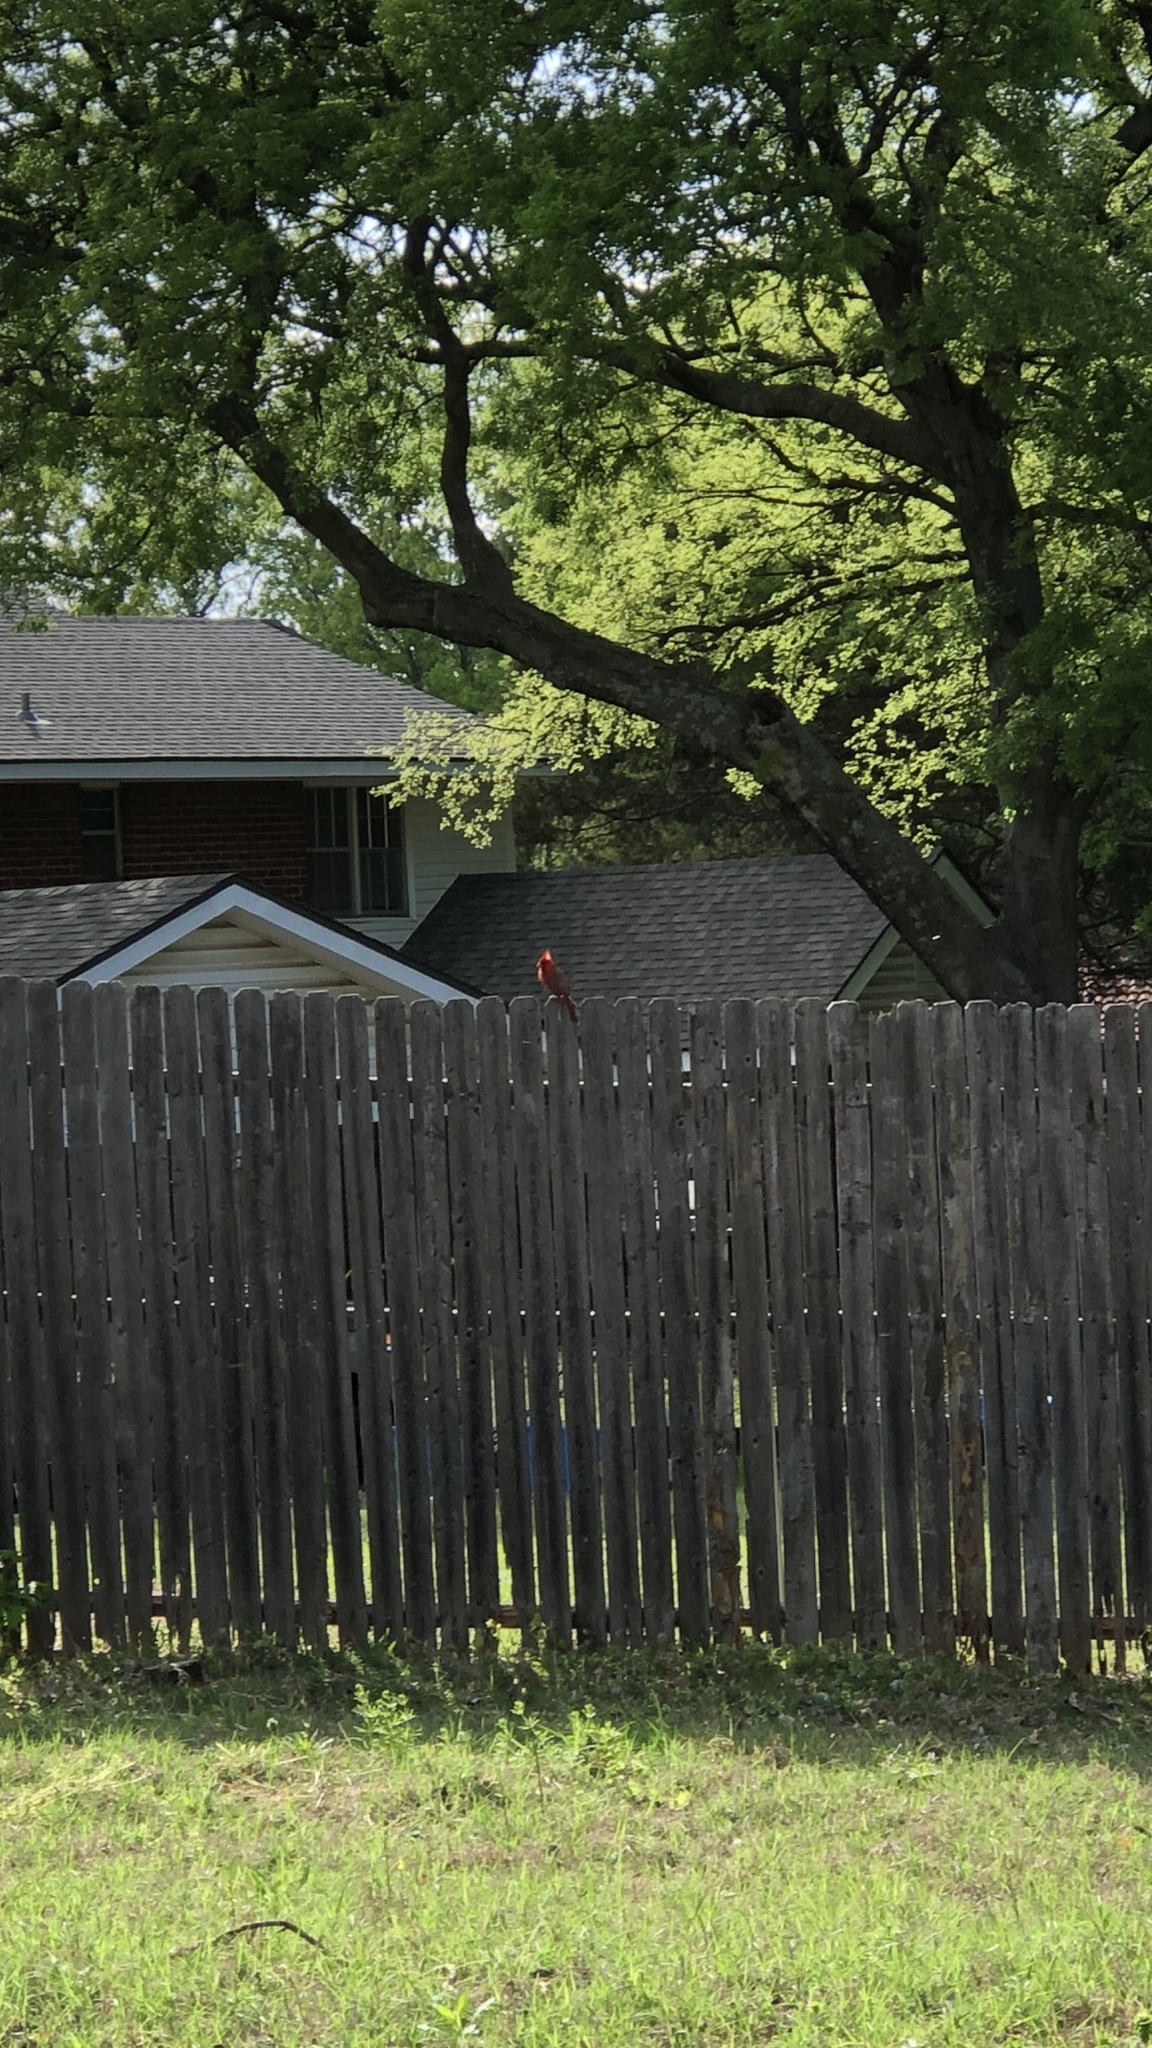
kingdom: Animalia
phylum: Chordata
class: Aves
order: Passeriformes
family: Cardinalidae
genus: Cardinalis
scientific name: Cardinalis cardinalis
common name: Northern cardinal
